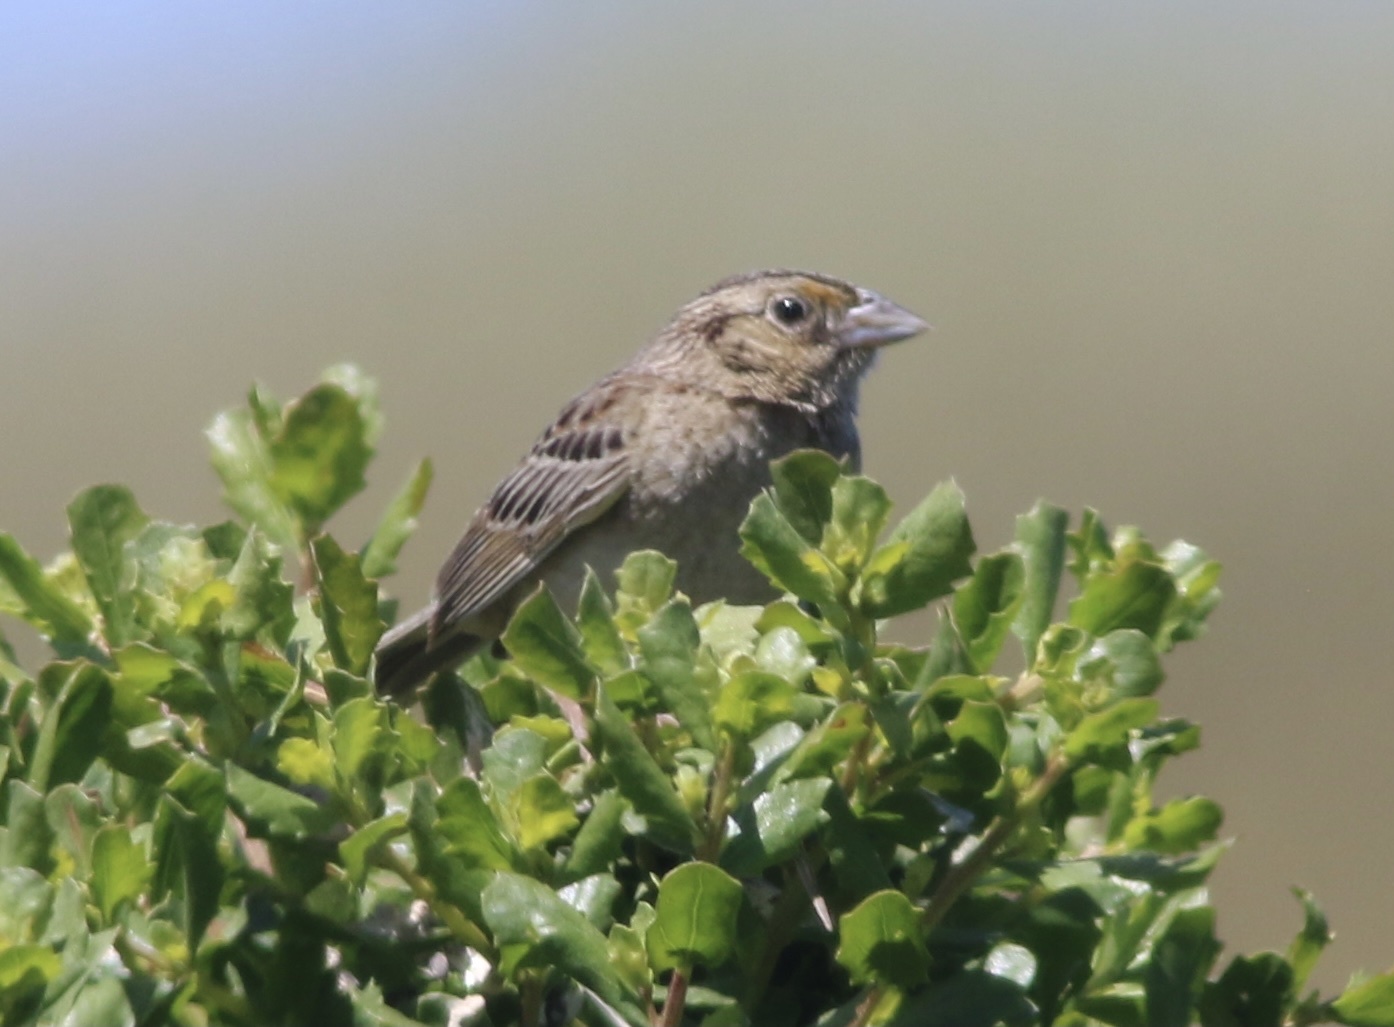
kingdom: Animalia
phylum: Chordata
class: Aves
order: Passeriformes
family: Passerellidae
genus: Ammodramus
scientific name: Ammodramus savannarum
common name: Grasshopper sparrow
